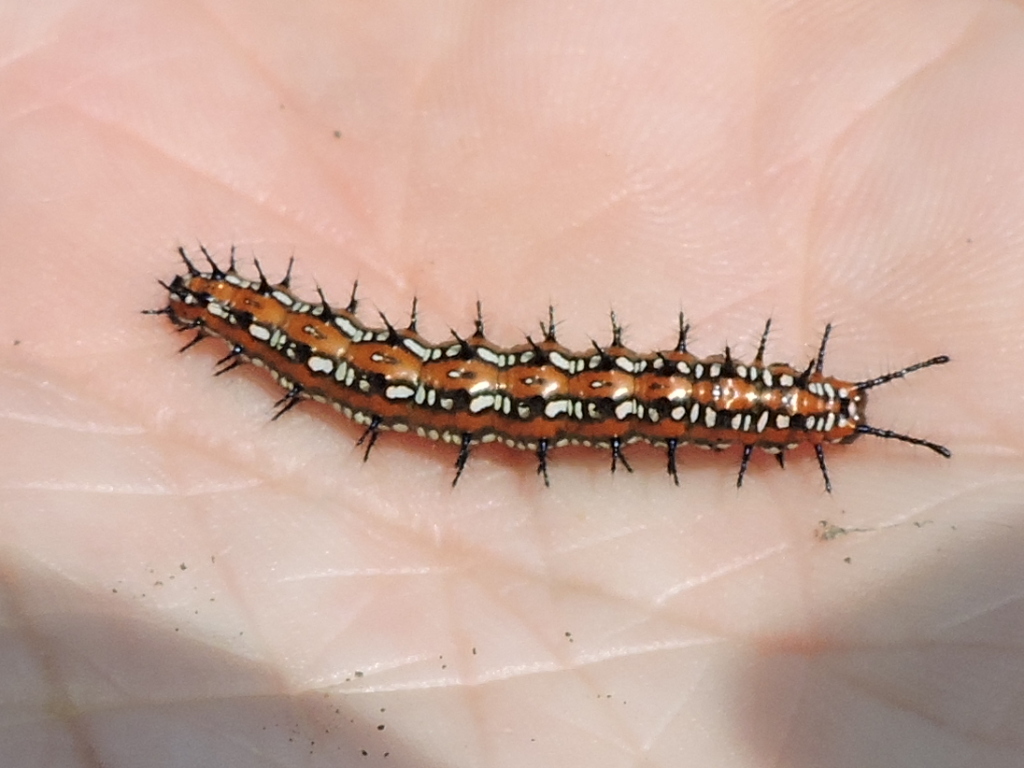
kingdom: Animalia
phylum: Arthropoda
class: Insecta
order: Lepidoptera
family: Nymphalidae
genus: Euptoieta
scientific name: Euptoieta claudia
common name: Variegated fritillary
